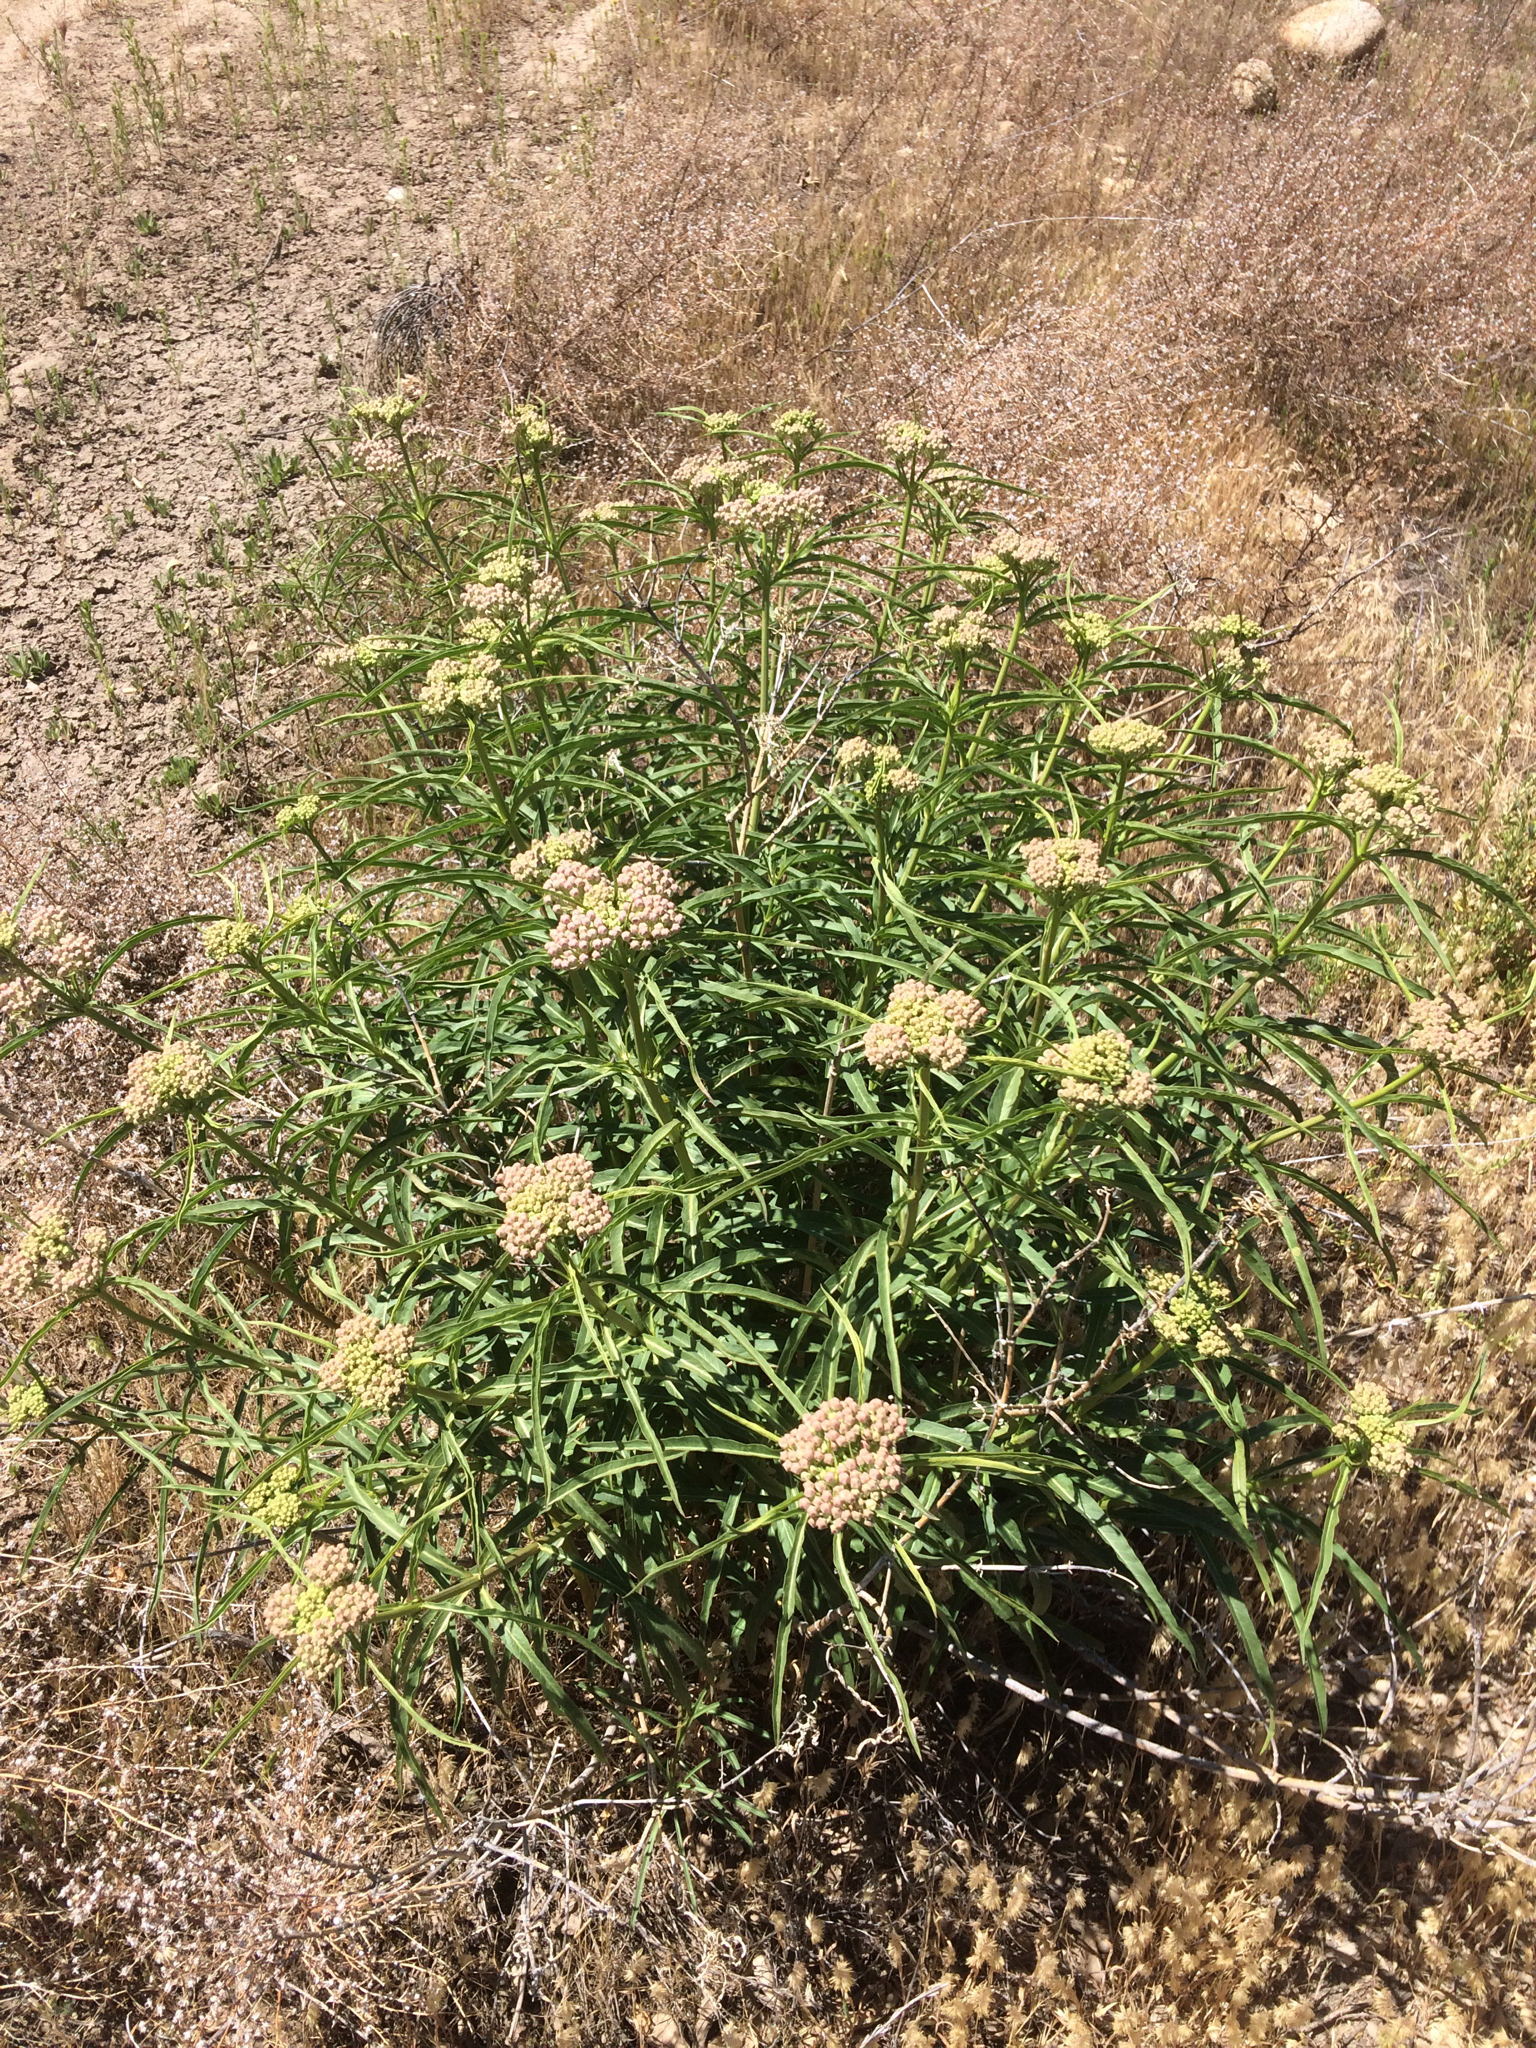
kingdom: Plantae
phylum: Tracheophyta
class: Magnoliopsida
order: Gentianales
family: Apocynaceae
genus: Asclepias
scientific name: Asclepias fascicularis
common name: Mexican milkweed
